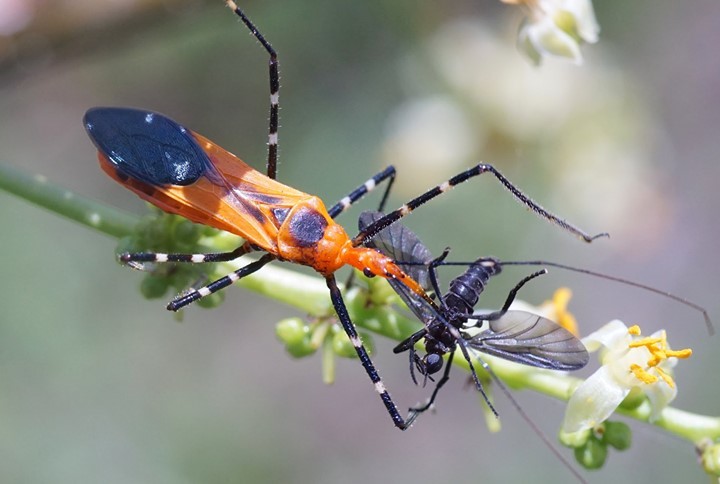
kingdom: Animalia
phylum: Arthropoda
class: Insecta
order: Hemiptera
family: Reduviidae
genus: Zelus
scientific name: Zelus longipes
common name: Milkweed assassin bug
